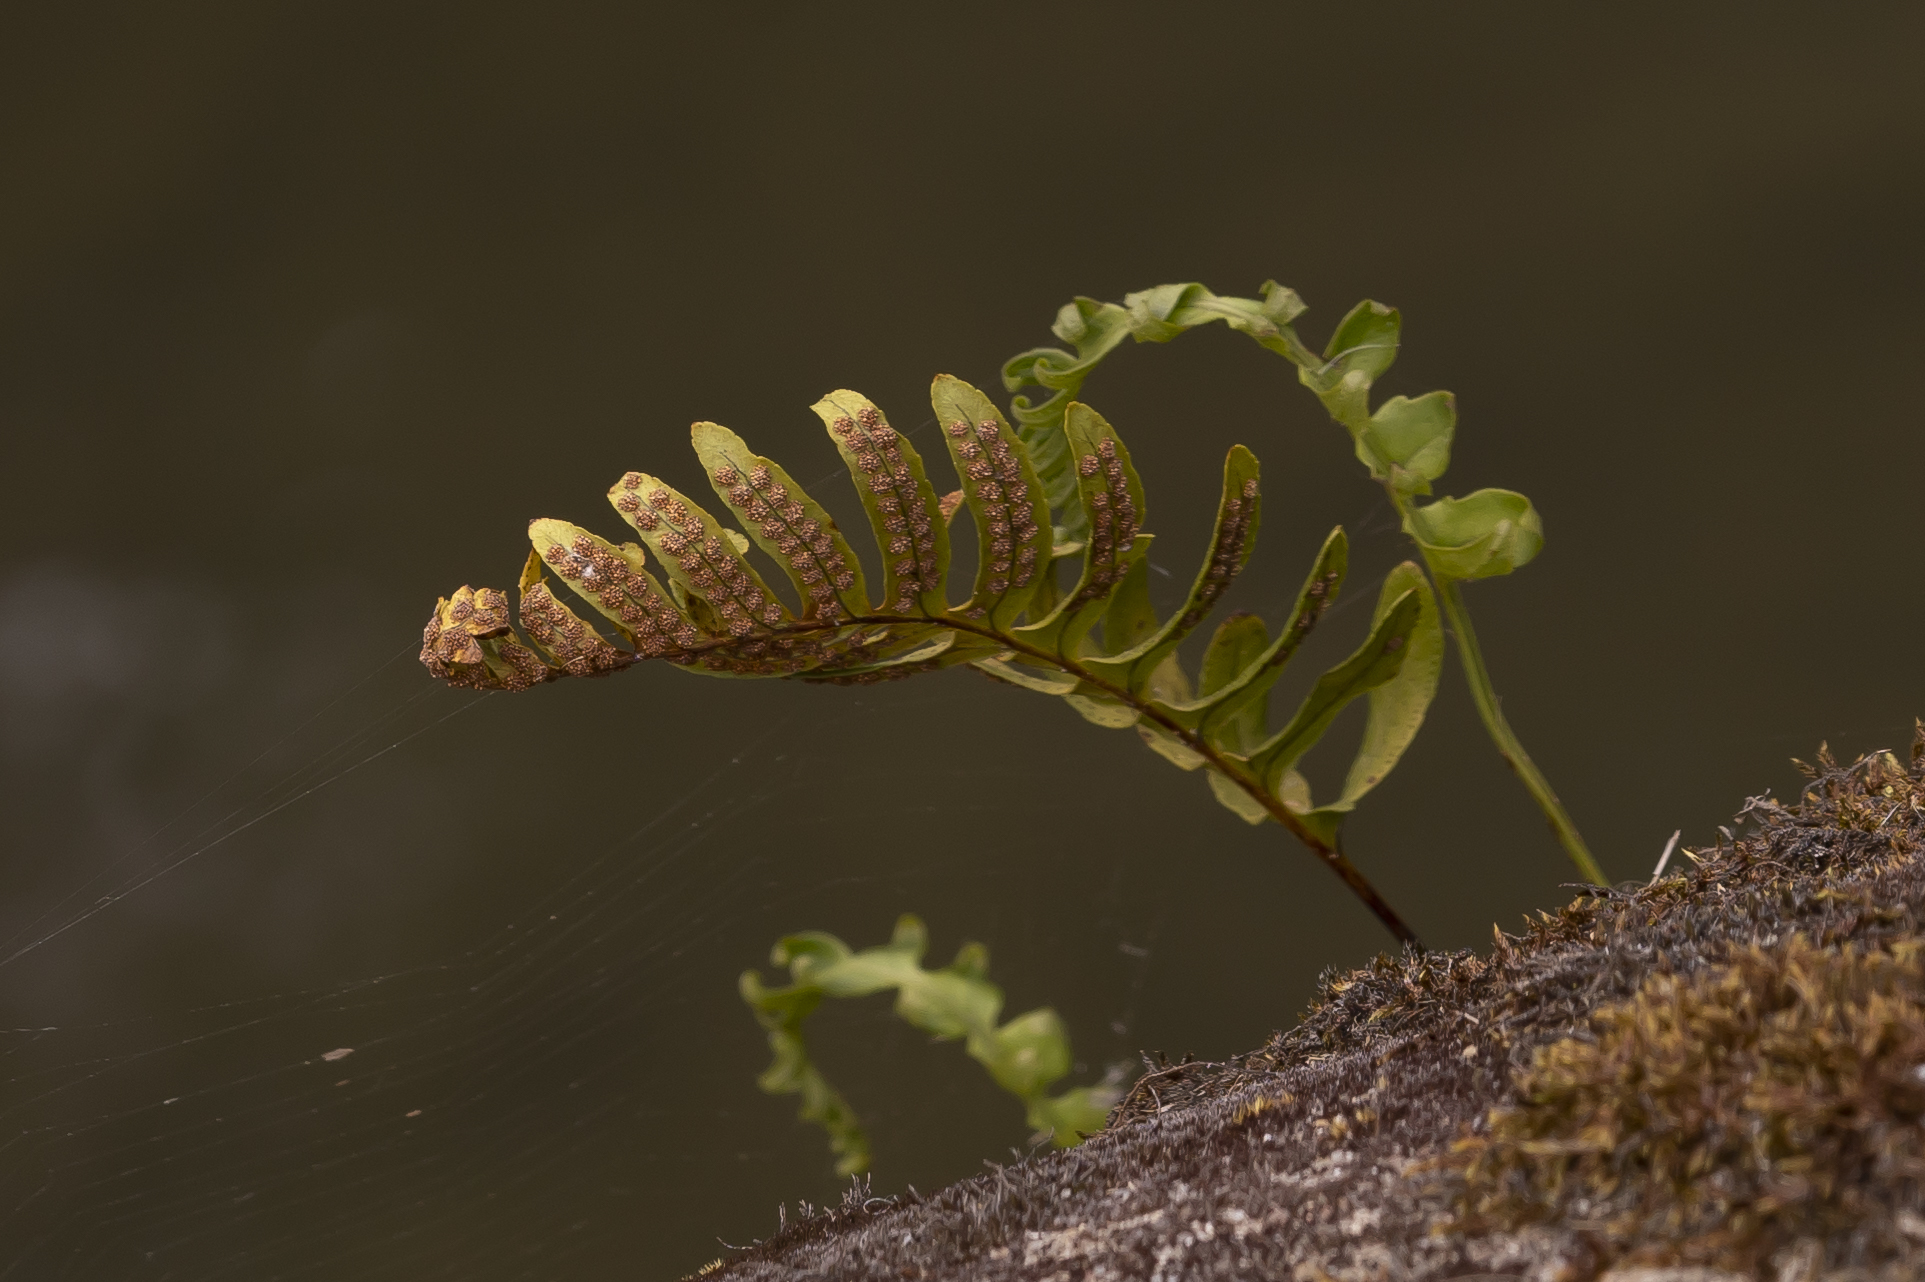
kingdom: Plantae
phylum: Tracheophyta
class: Polypodiopsida
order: Polypodiales
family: Polypodiaceae
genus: Polypodium
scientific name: Polypodium vulgare
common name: Common polypody
